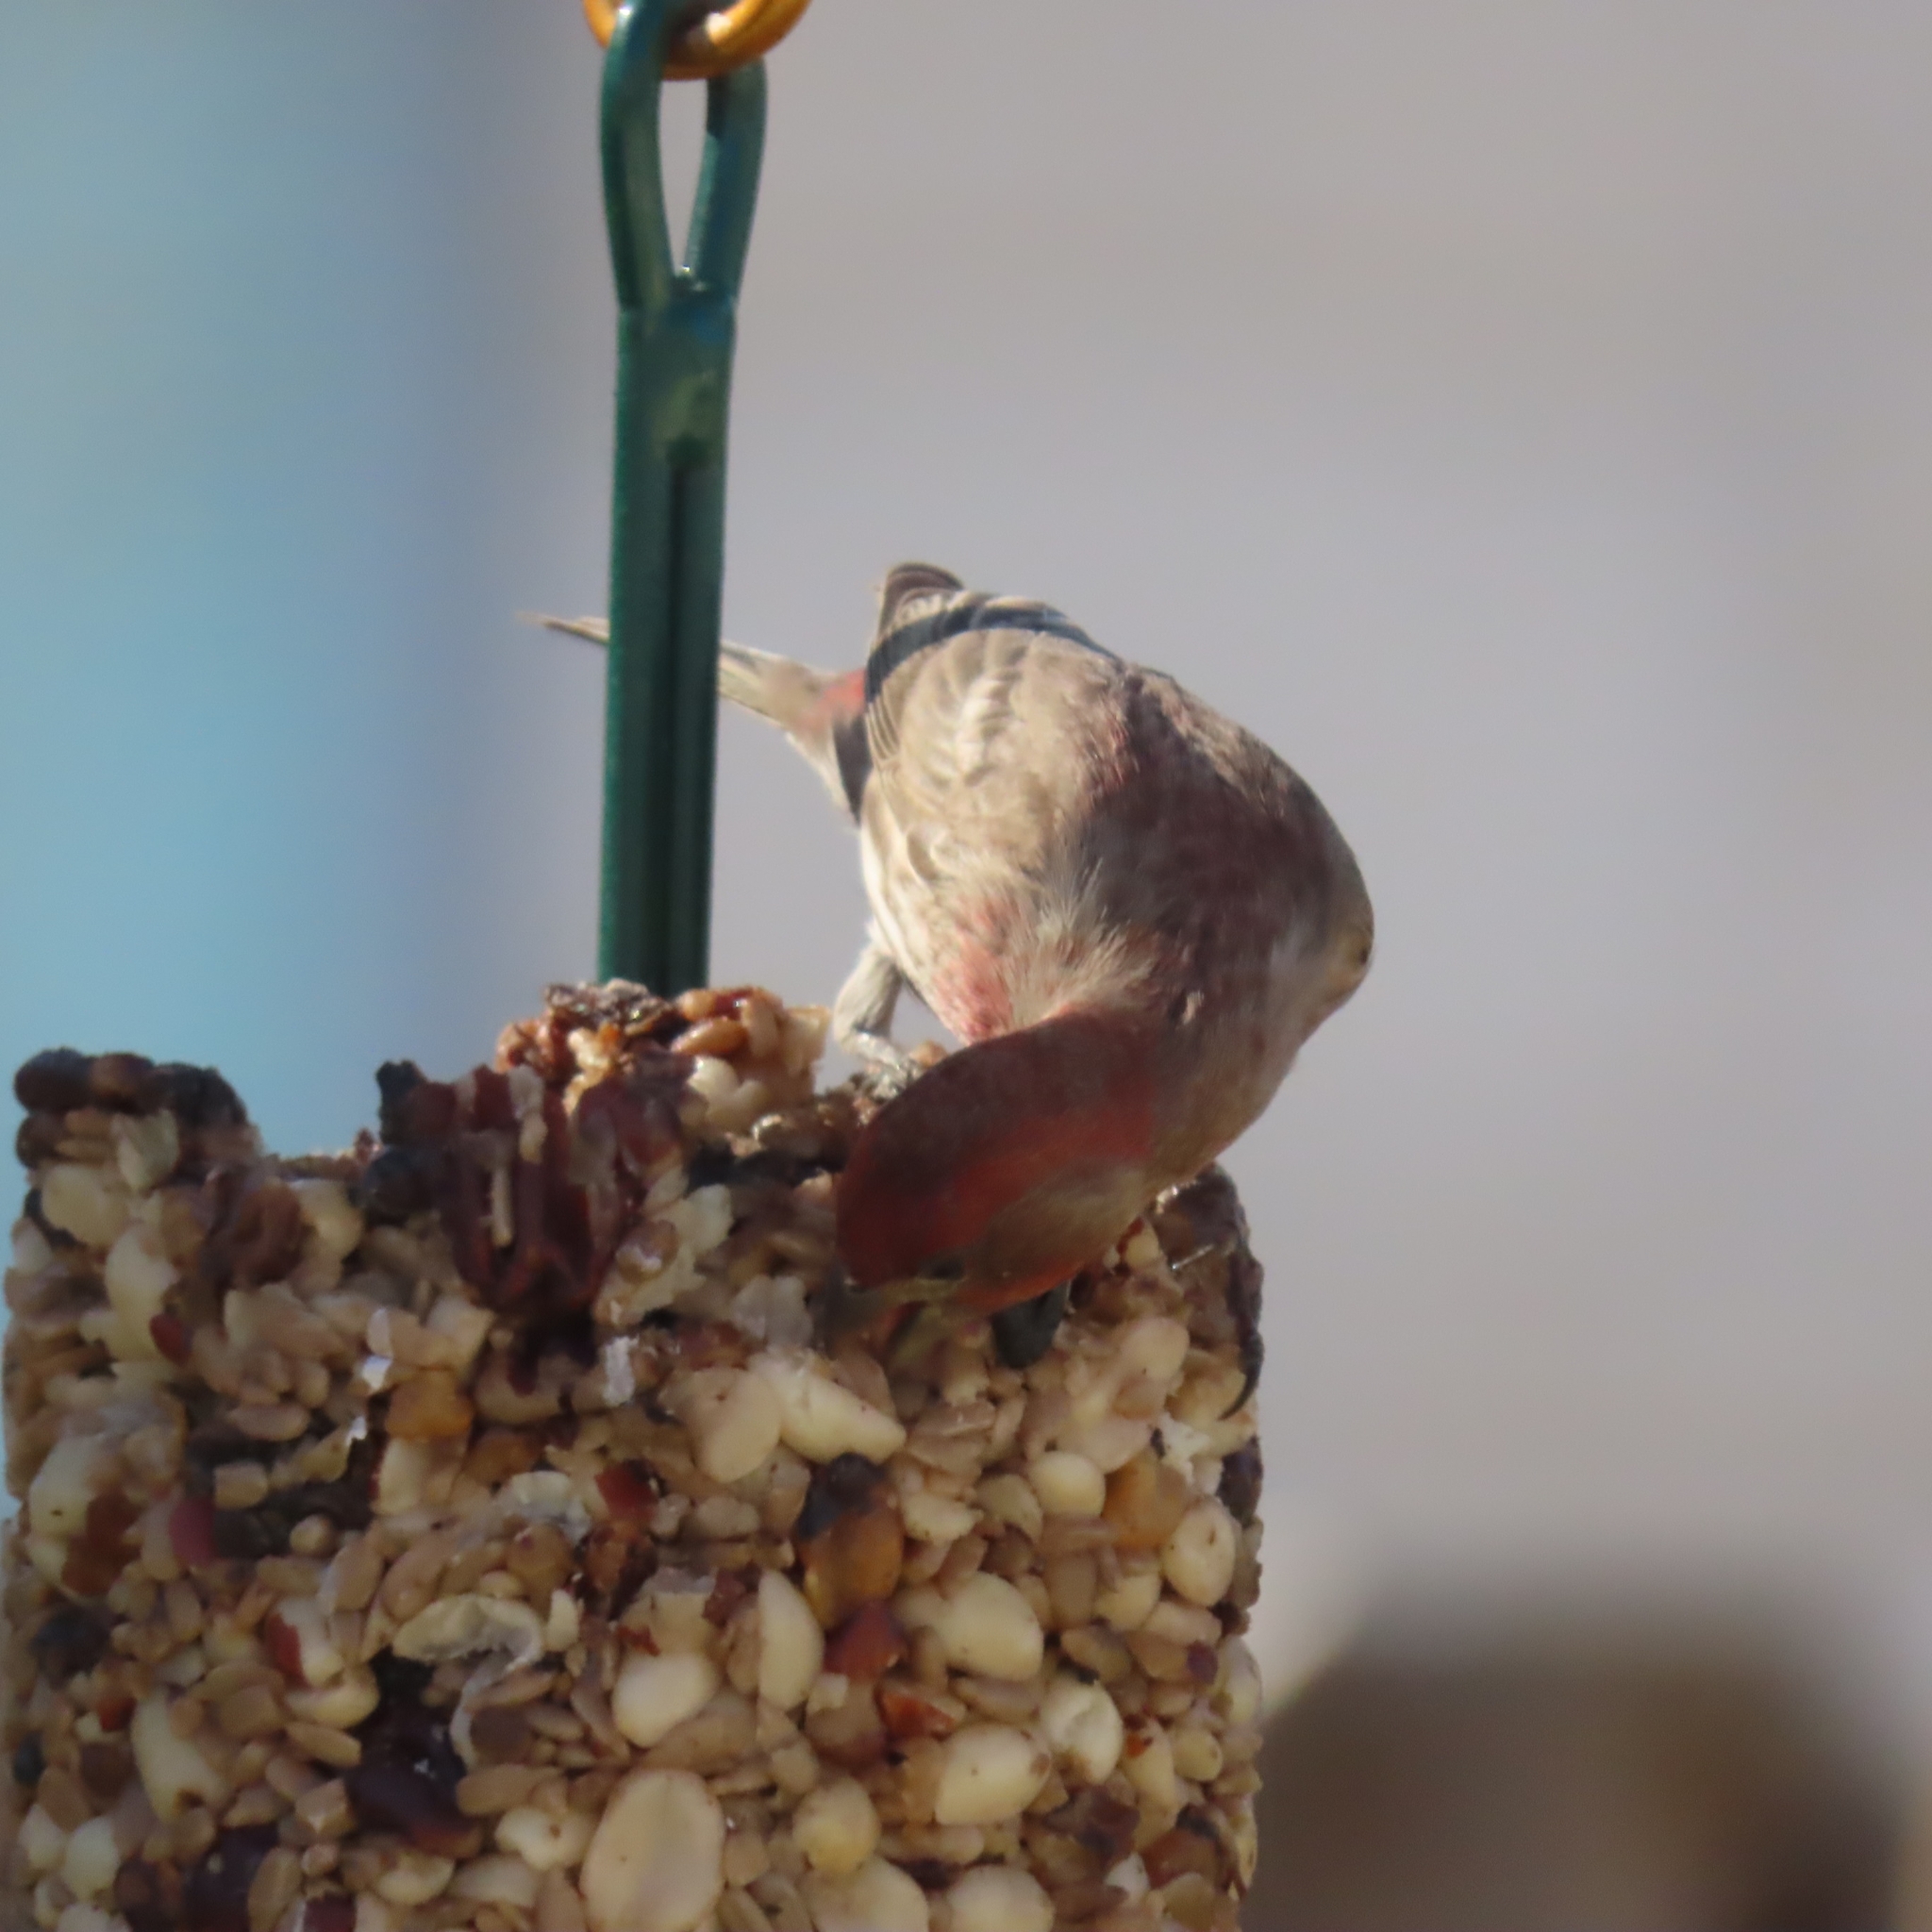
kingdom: Animalia
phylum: Chordata
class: Aves
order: Passeriformes
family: Fringillidae
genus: Haemorhous
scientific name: Haemorhous mexicanus
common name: House finch
